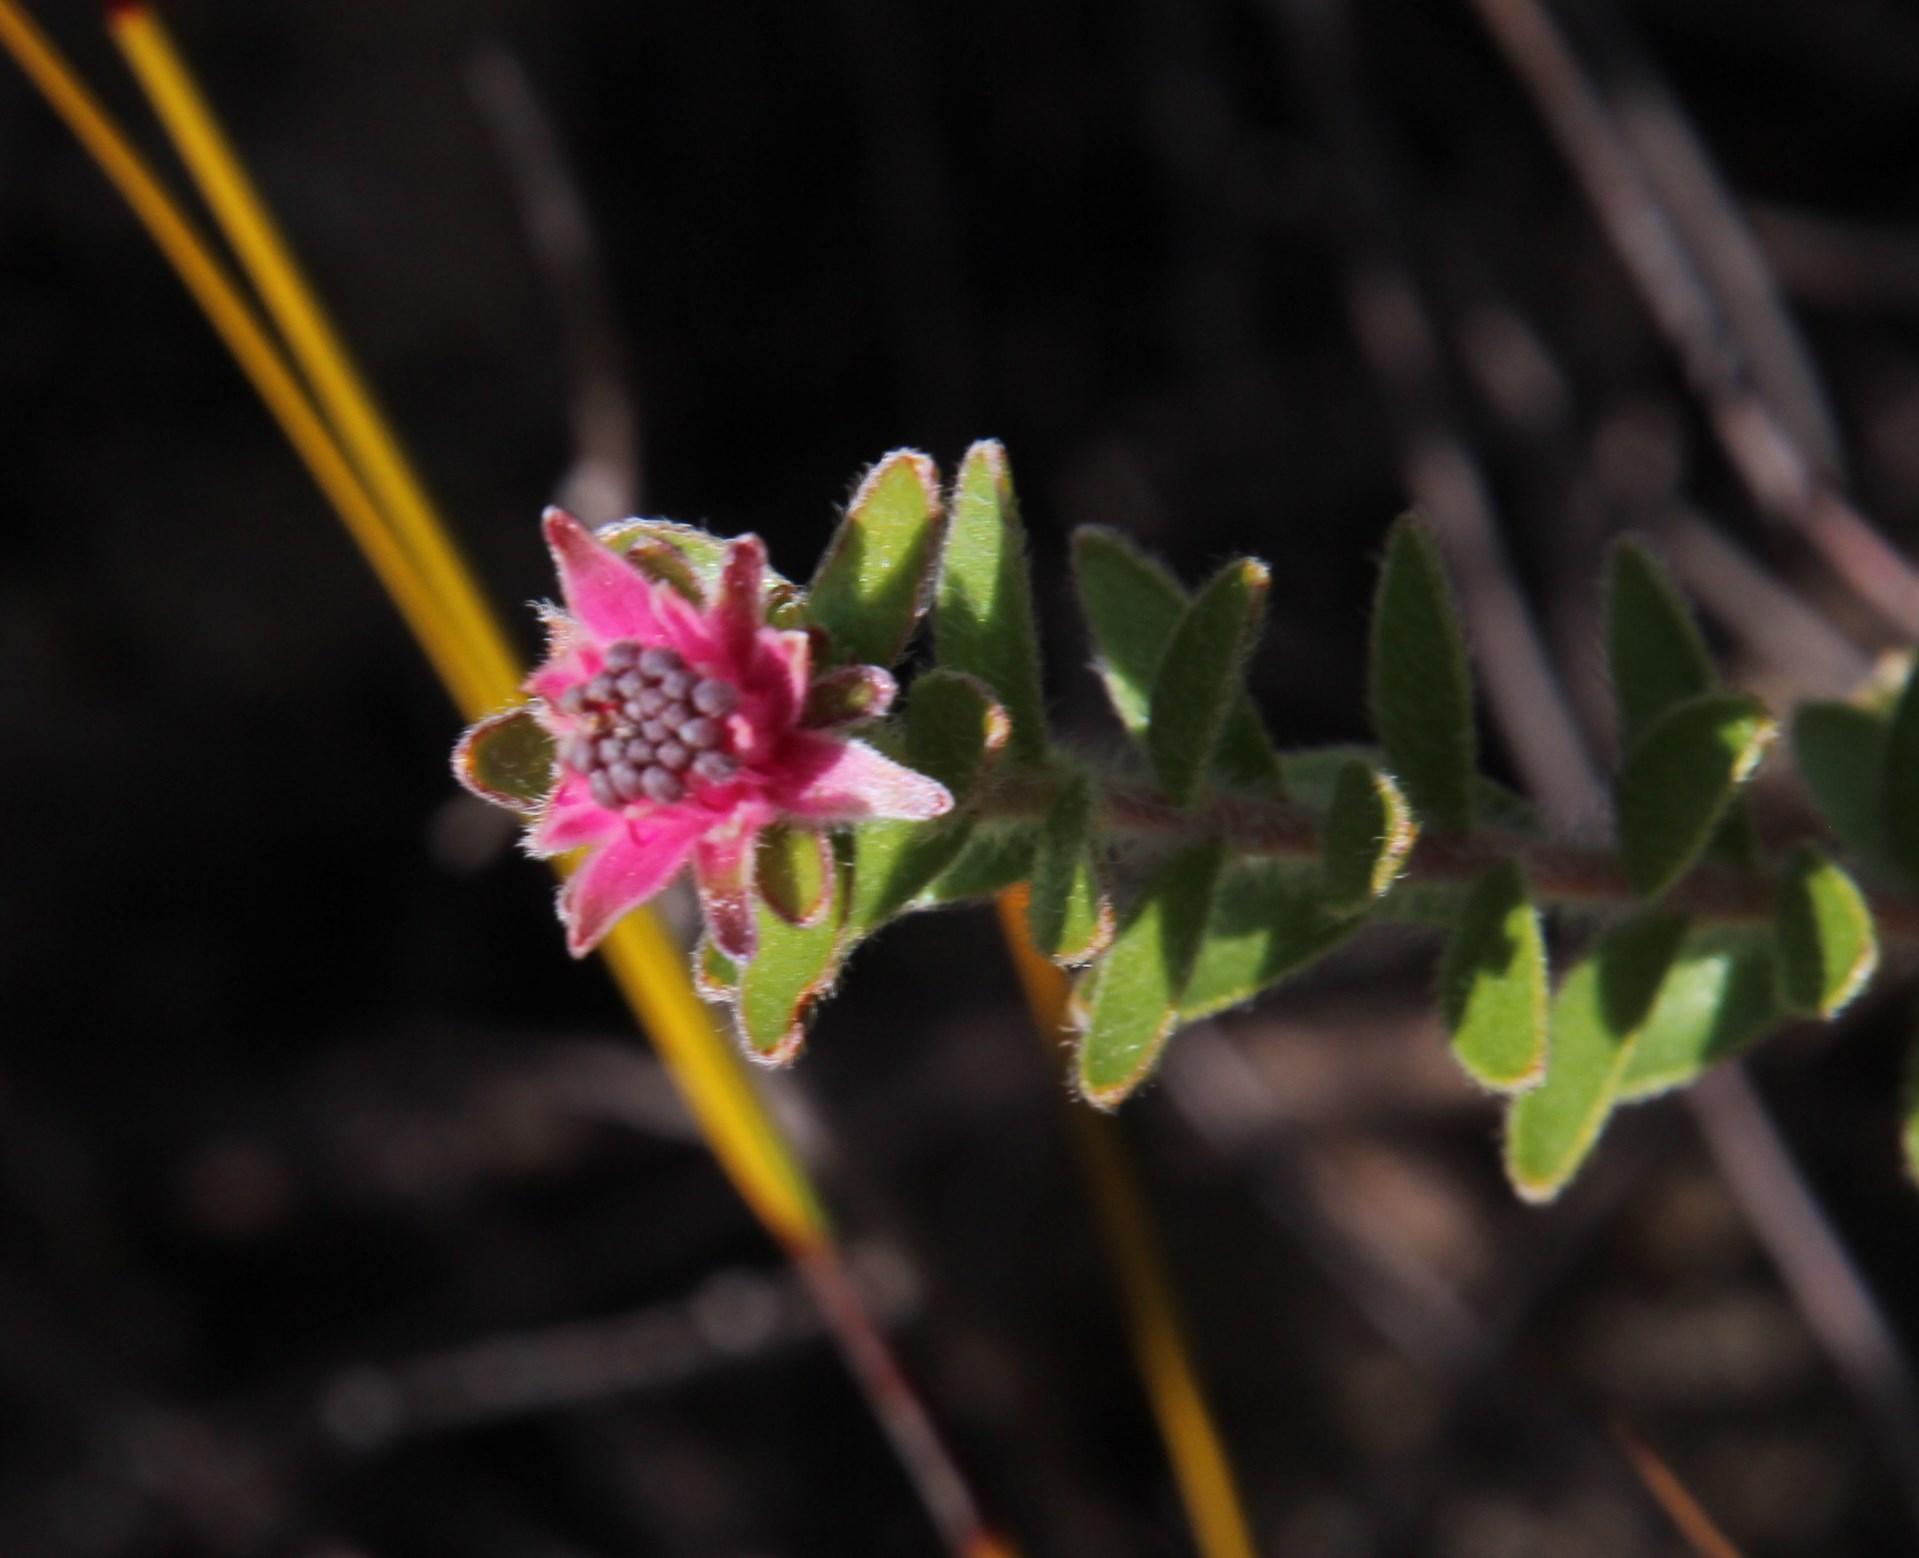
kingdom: Plantae
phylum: Tracheophyta
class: Magnoliopsida
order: Proteales
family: Proteaceae
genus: Diastella
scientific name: Diastella divaricata
